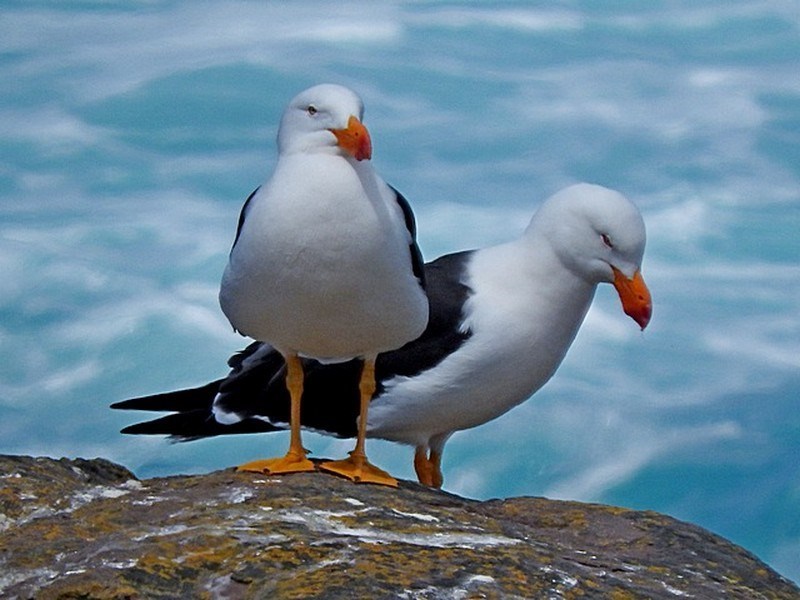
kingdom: Animalia
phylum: Chordata
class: Aves
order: Charadriiformes
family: Laridae
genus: Larus
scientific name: Larus pacificus
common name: Pacific gull
